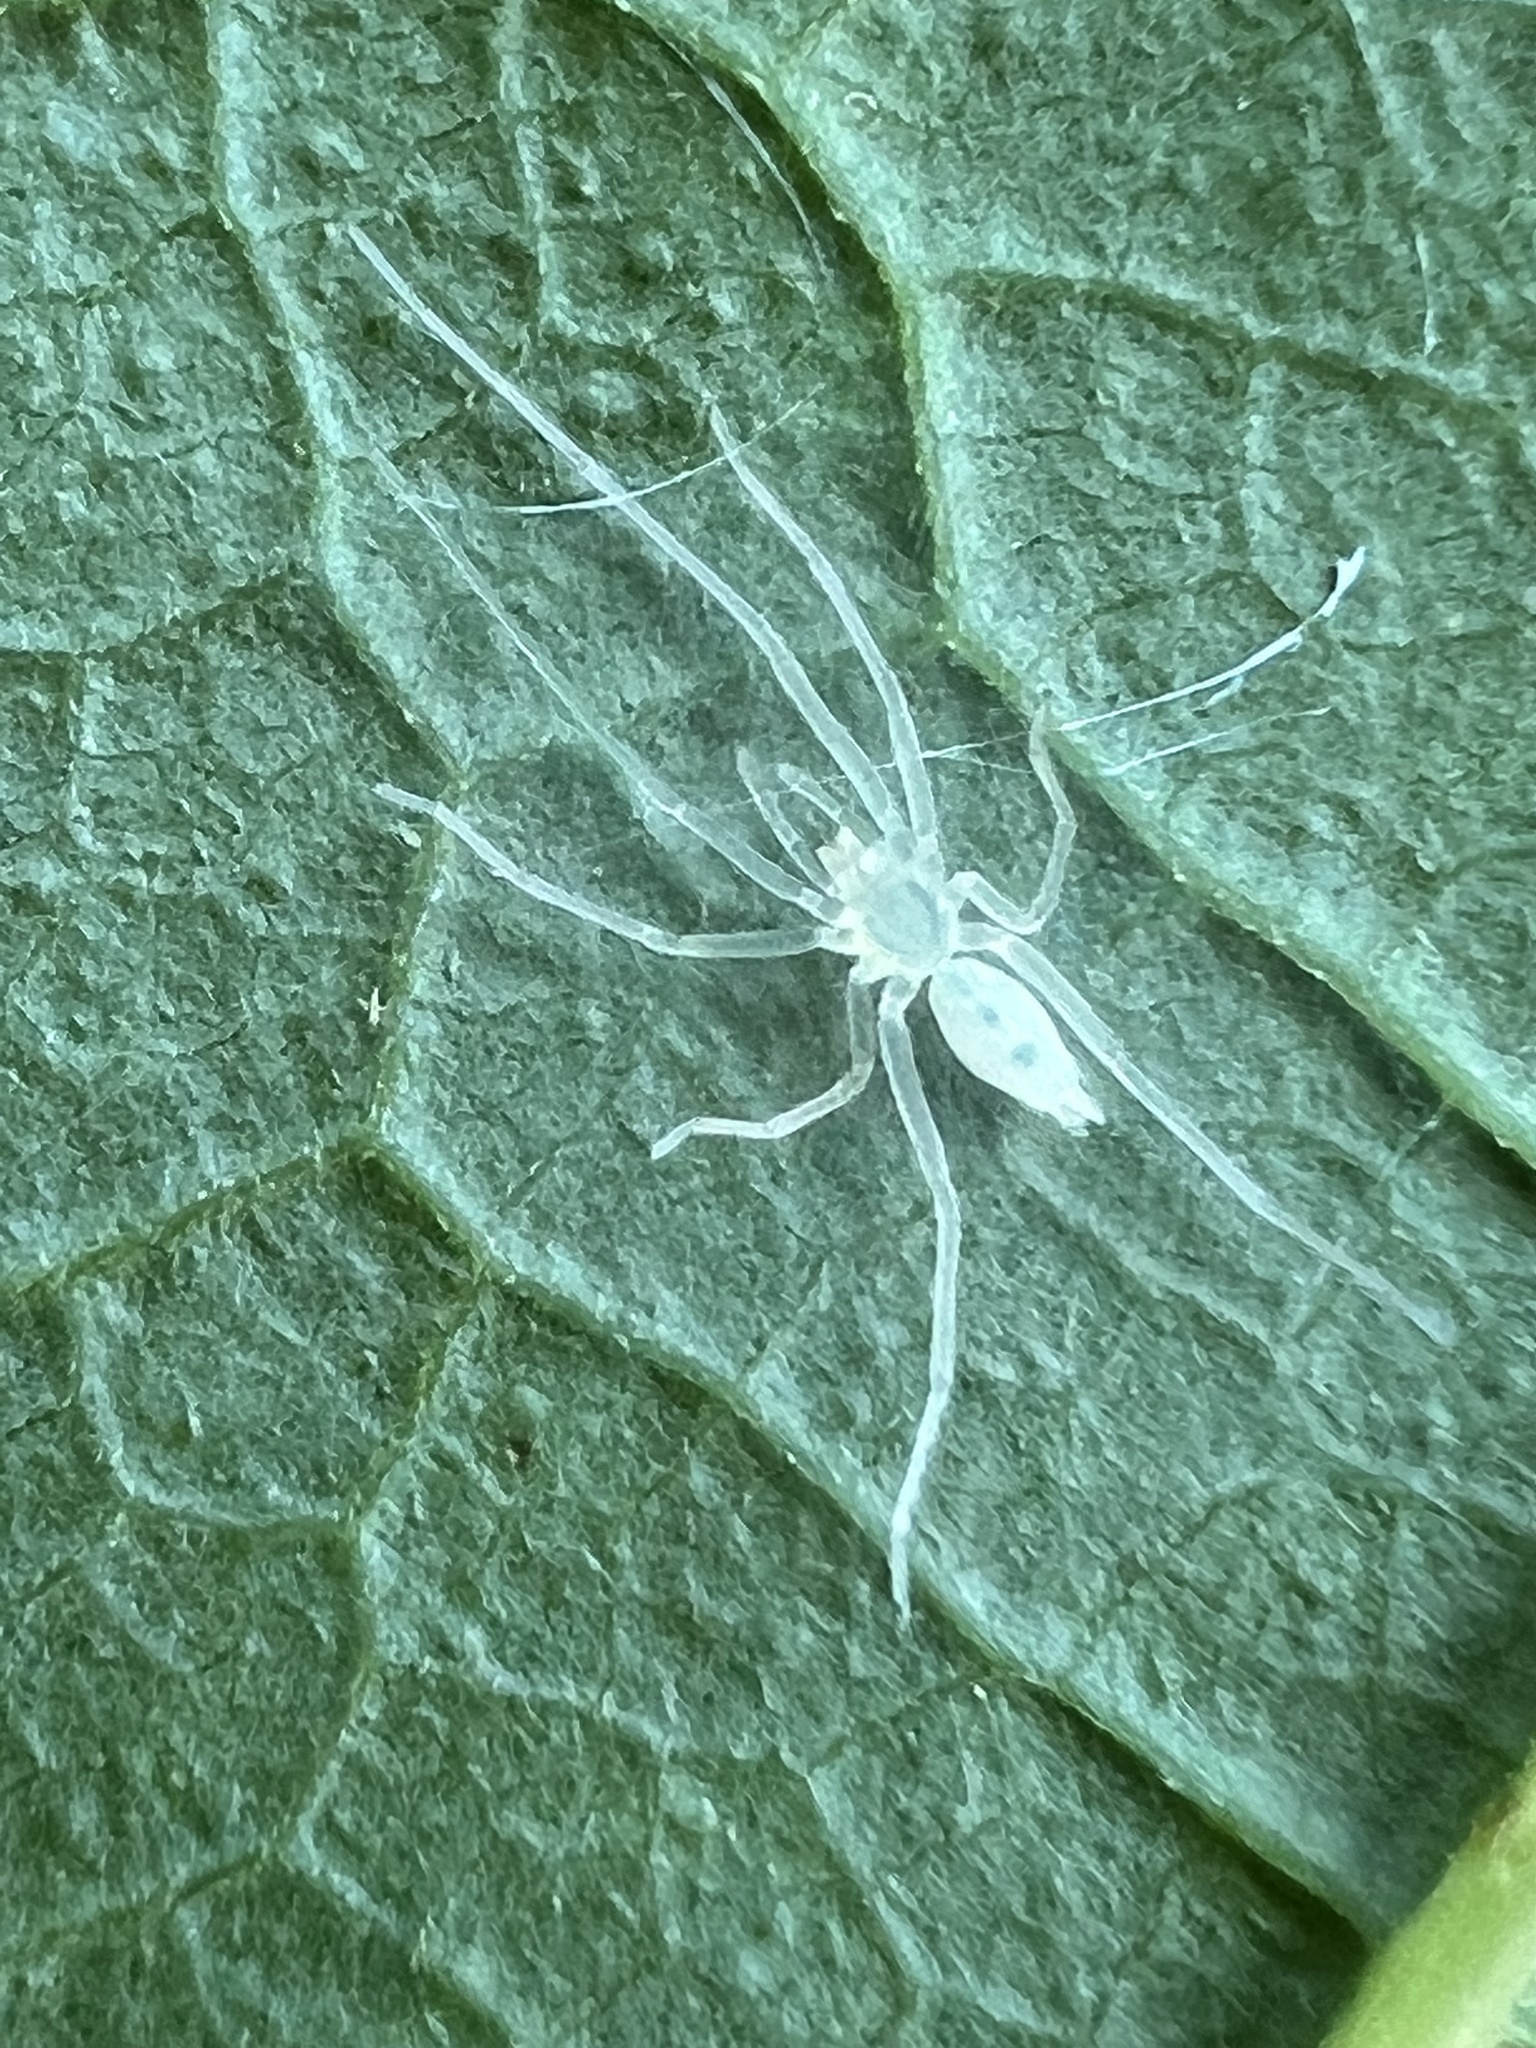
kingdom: Animalia
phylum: Arthropoda
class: Arachnida
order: Araneae
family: Anyphaenidae
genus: Wulfila
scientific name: Wulfila albens
